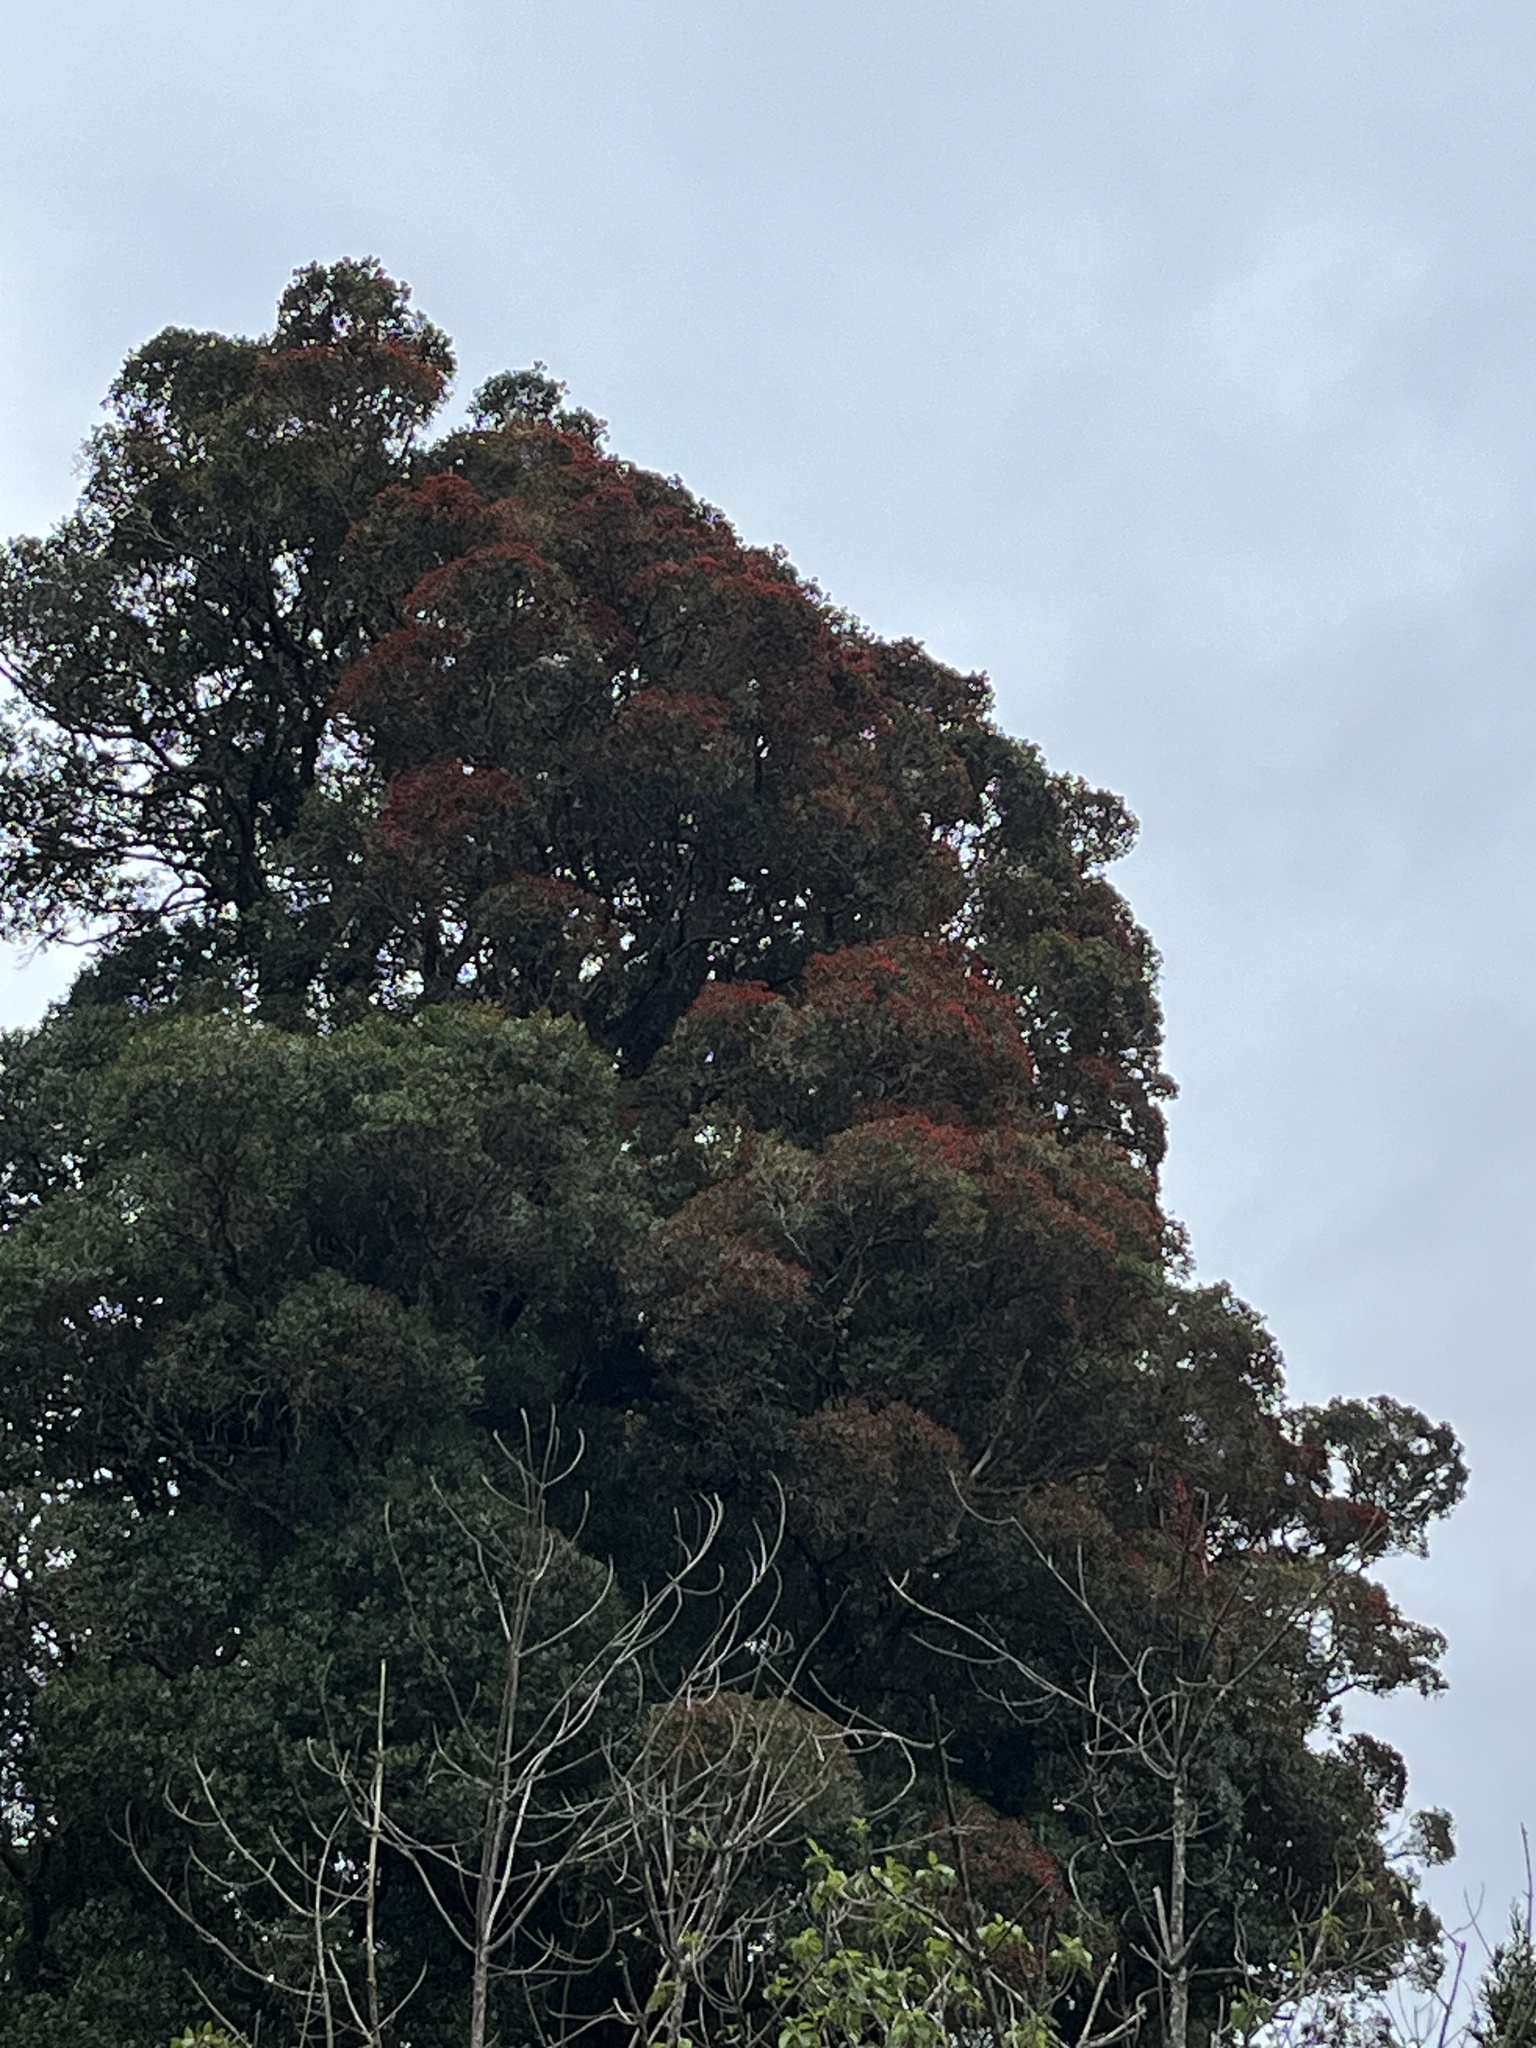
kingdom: Plantae
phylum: Tracheophyta
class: Magnoliopsida
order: Myrtales
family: Myrtaceae
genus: Metrosideros
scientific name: Metrosideros robusta
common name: Northern rata
